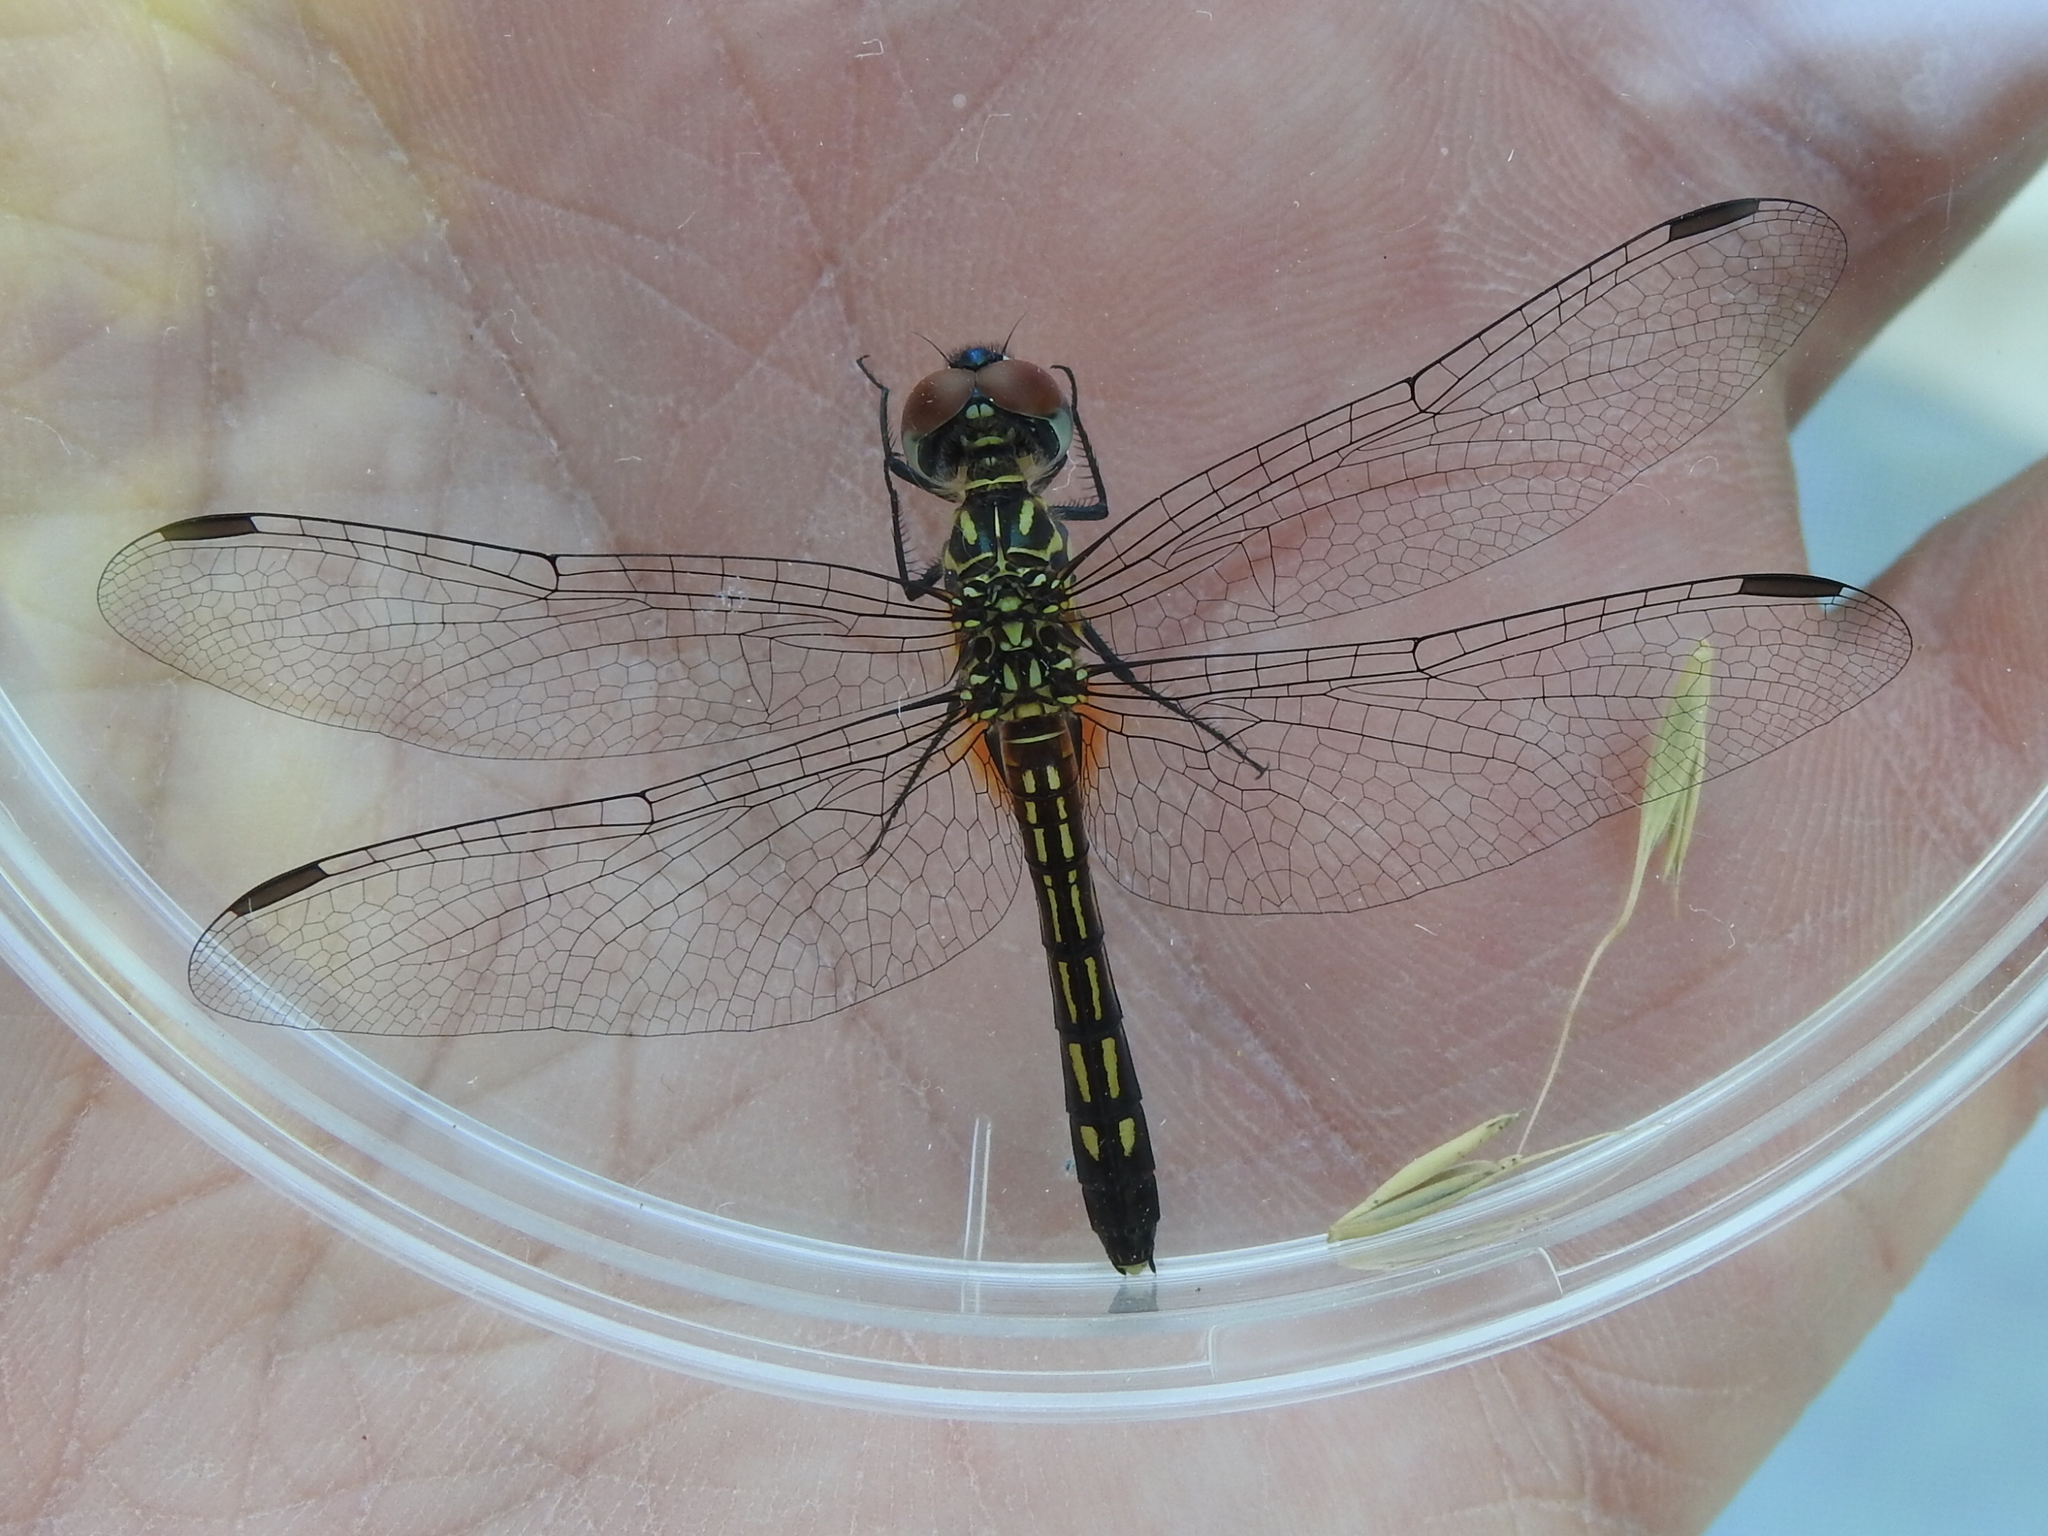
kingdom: Animalia
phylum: Arthropoda
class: Insecta
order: Odonata
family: Libellulidae
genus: Pachydiplax
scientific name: Pachydiplax longipennis
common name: Blue dasher
